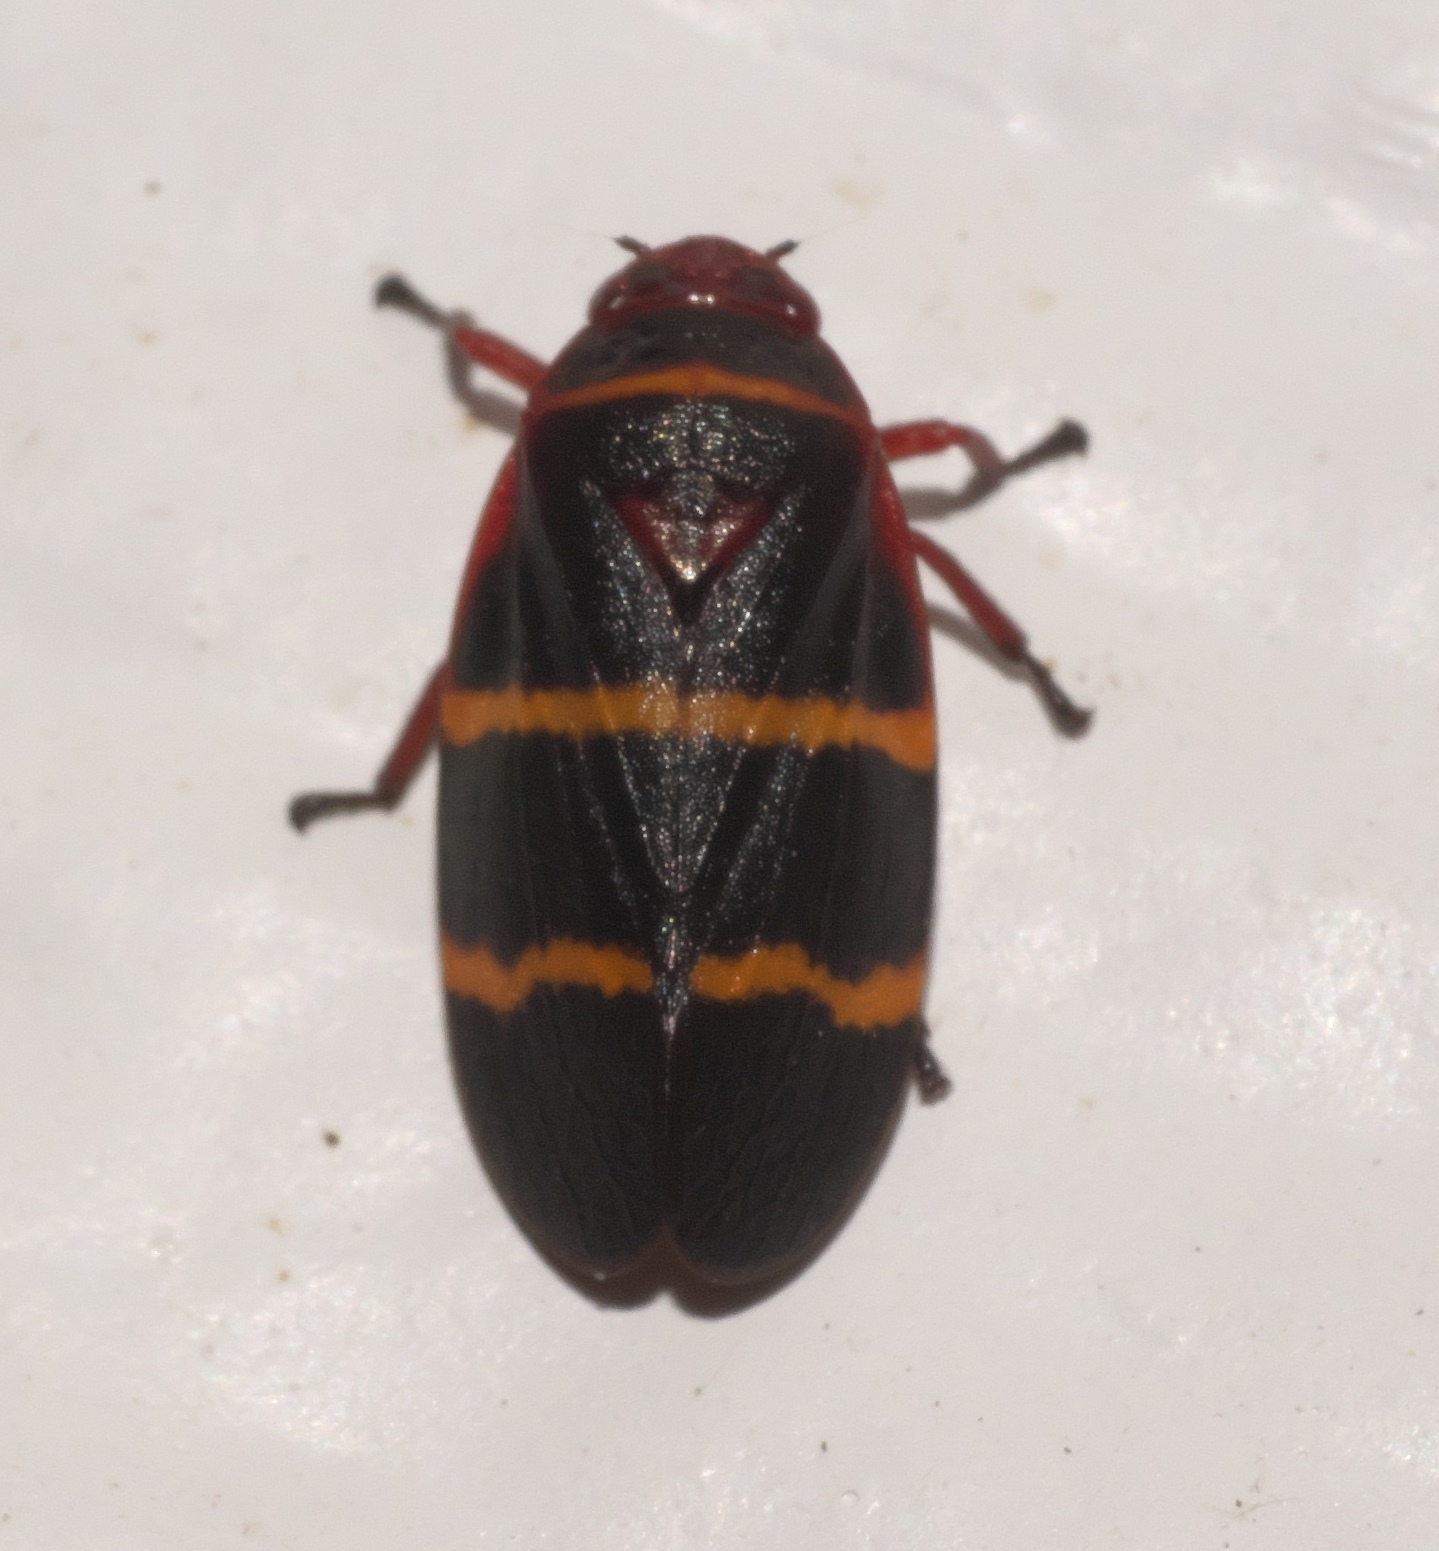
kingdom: Animalia
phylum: Arthropoda
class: Insecta
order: Hemiptera
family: Cercopidae
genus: Prosapia
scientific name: Prosapia bicincta
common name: Twolined spittlebug
